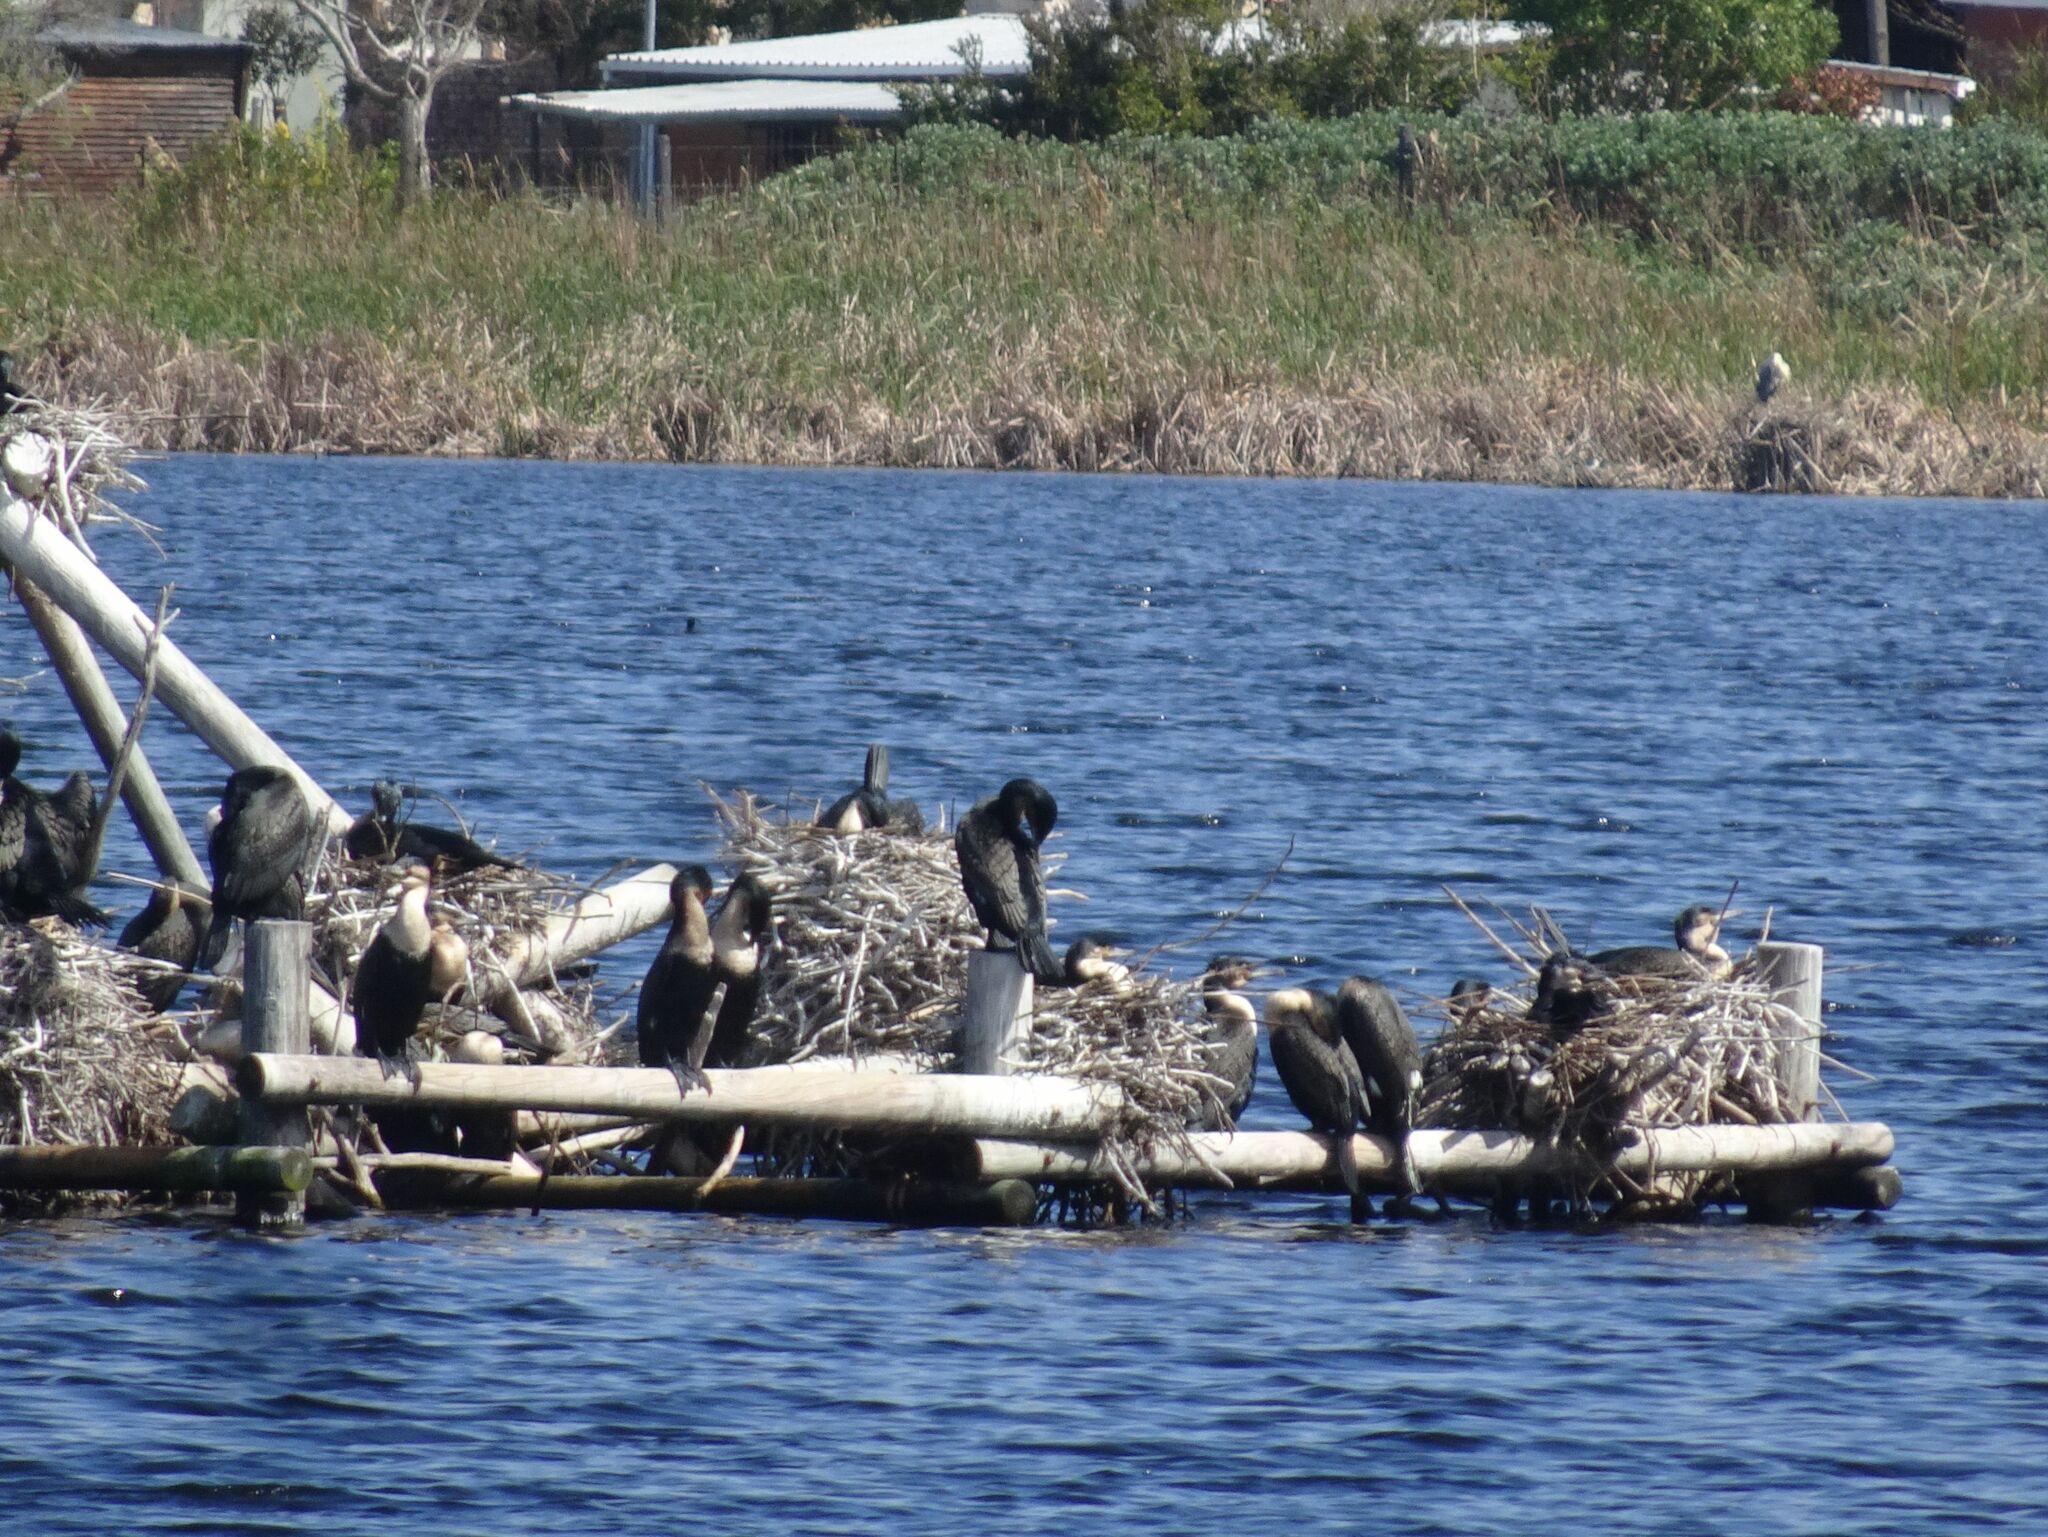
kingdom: Animalia
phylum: Chordata
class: Aves
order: Suliformes
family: Phalacrocoracidae
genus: Phalacrocorax
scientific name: Phalacrocorax carbo
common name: Great cormorant
